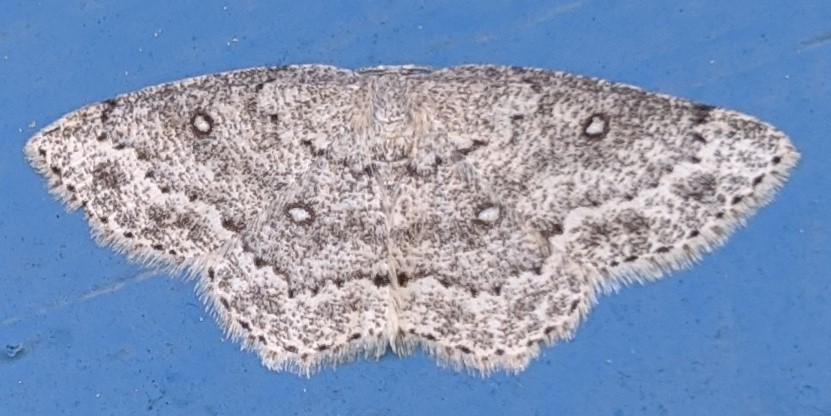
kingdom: Animalia
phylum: Arthropoda
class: Insecta
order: Lepidoptera
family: Geometridae
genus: Cyclophora
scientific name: Cyclophora pendulinaria
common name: Sweet fern geometer
